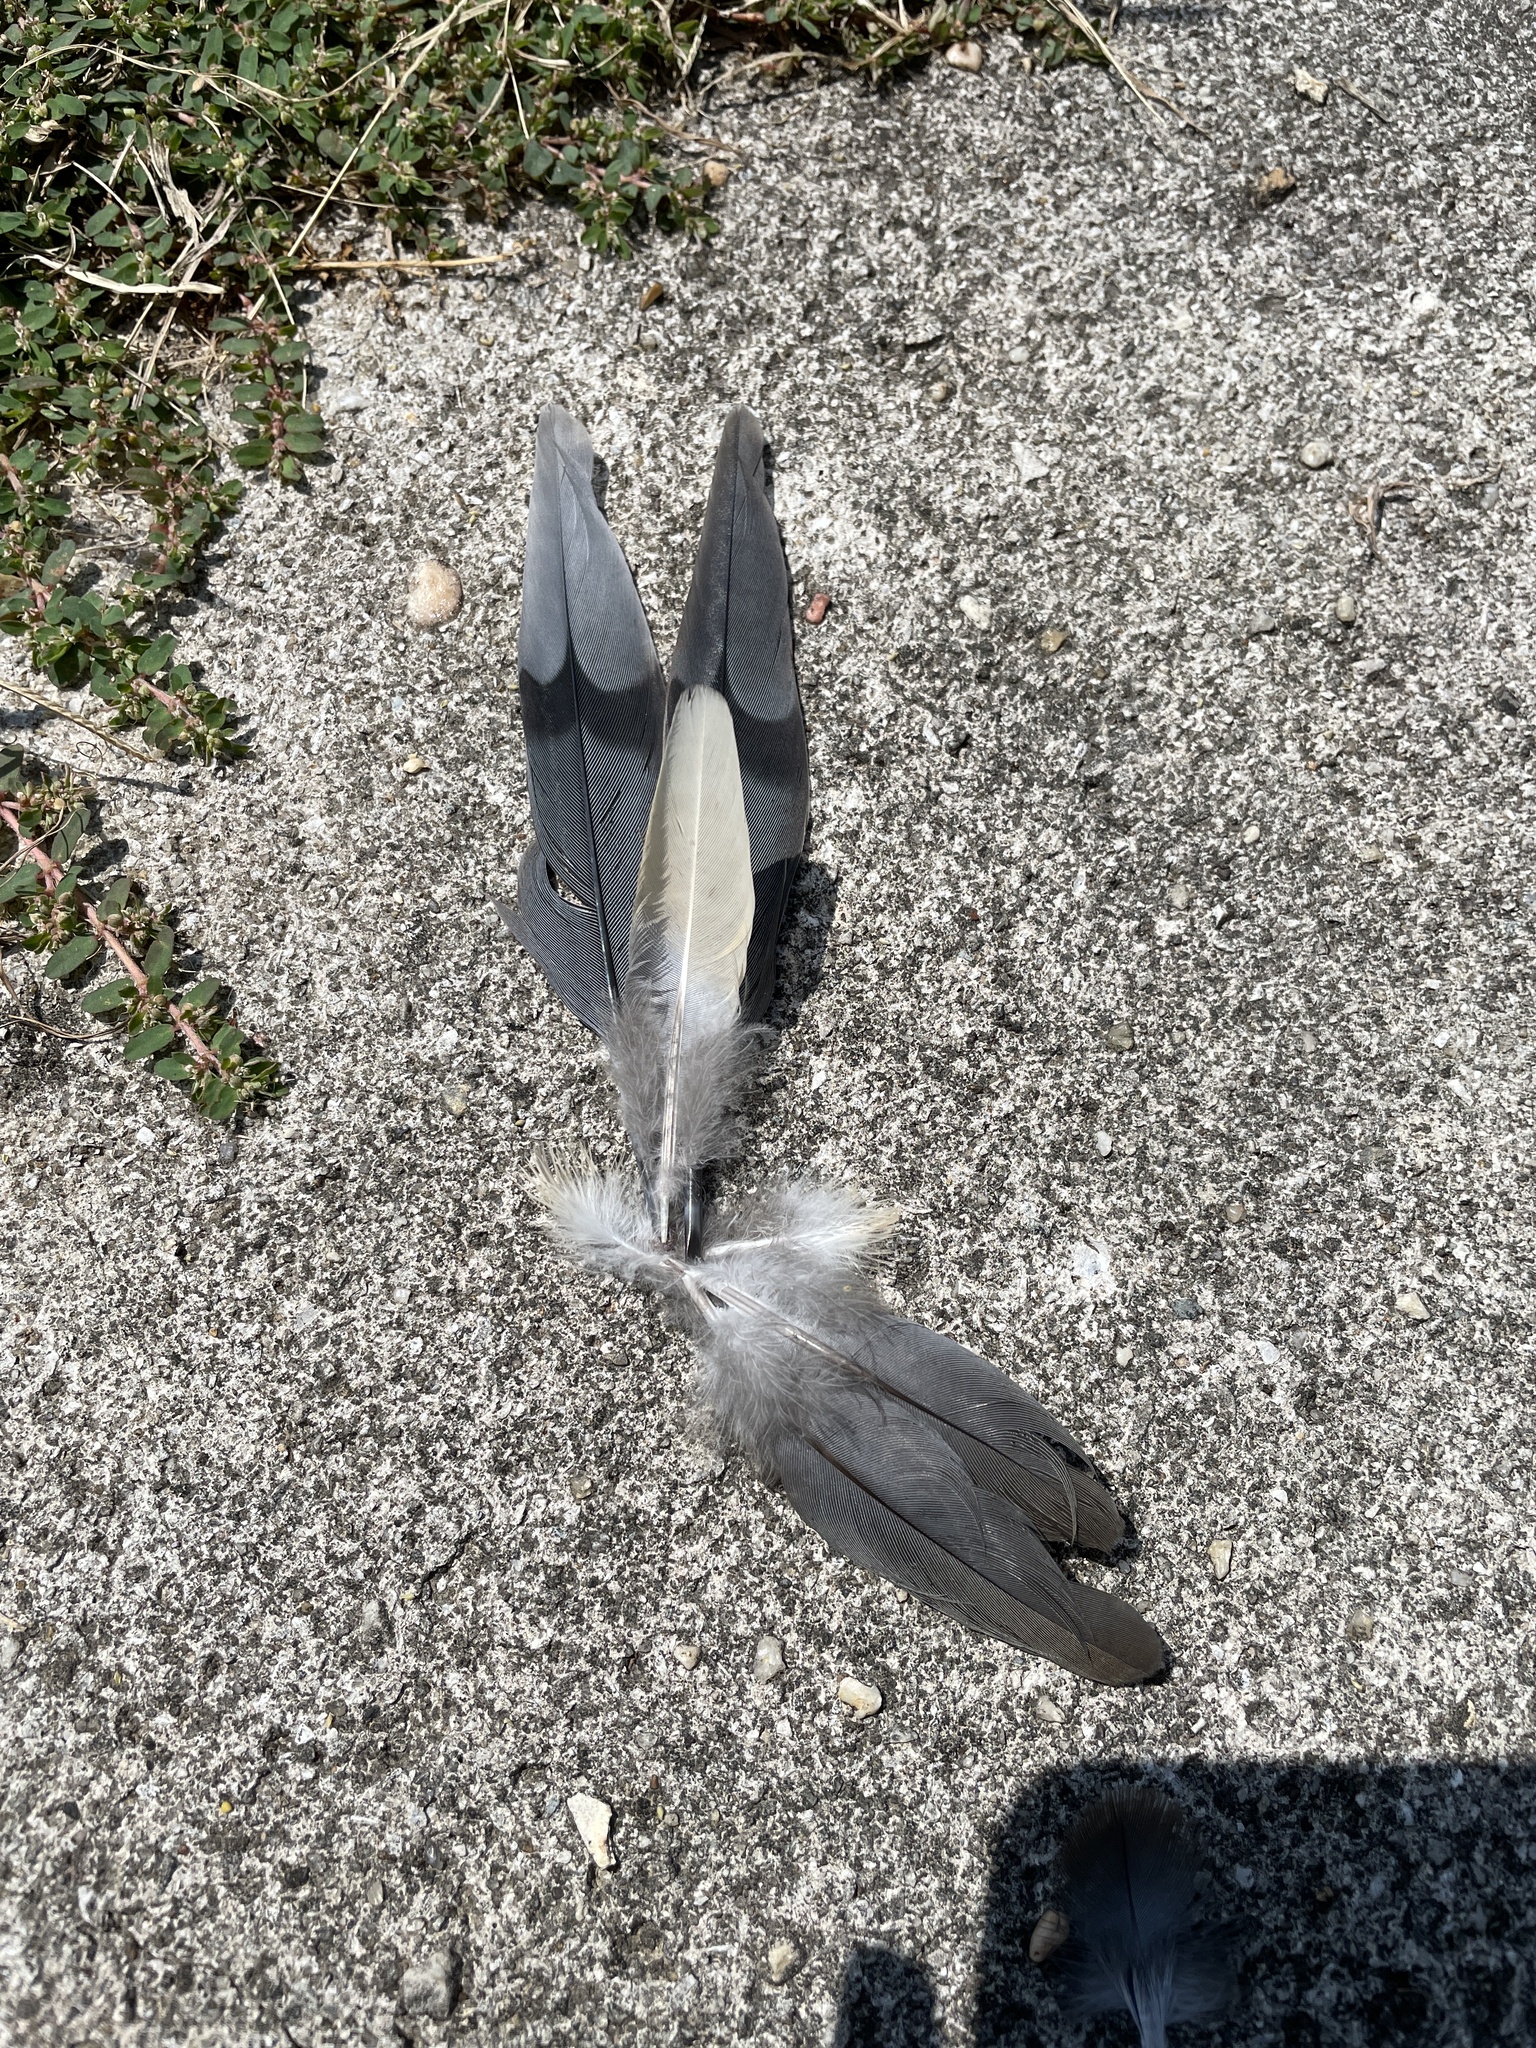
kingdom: Animalia
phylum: Chordata
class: Aves
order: Columbiformes
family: Columbidae
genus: Zenaida
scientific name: Zenaida macroura
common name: Mourning dove
